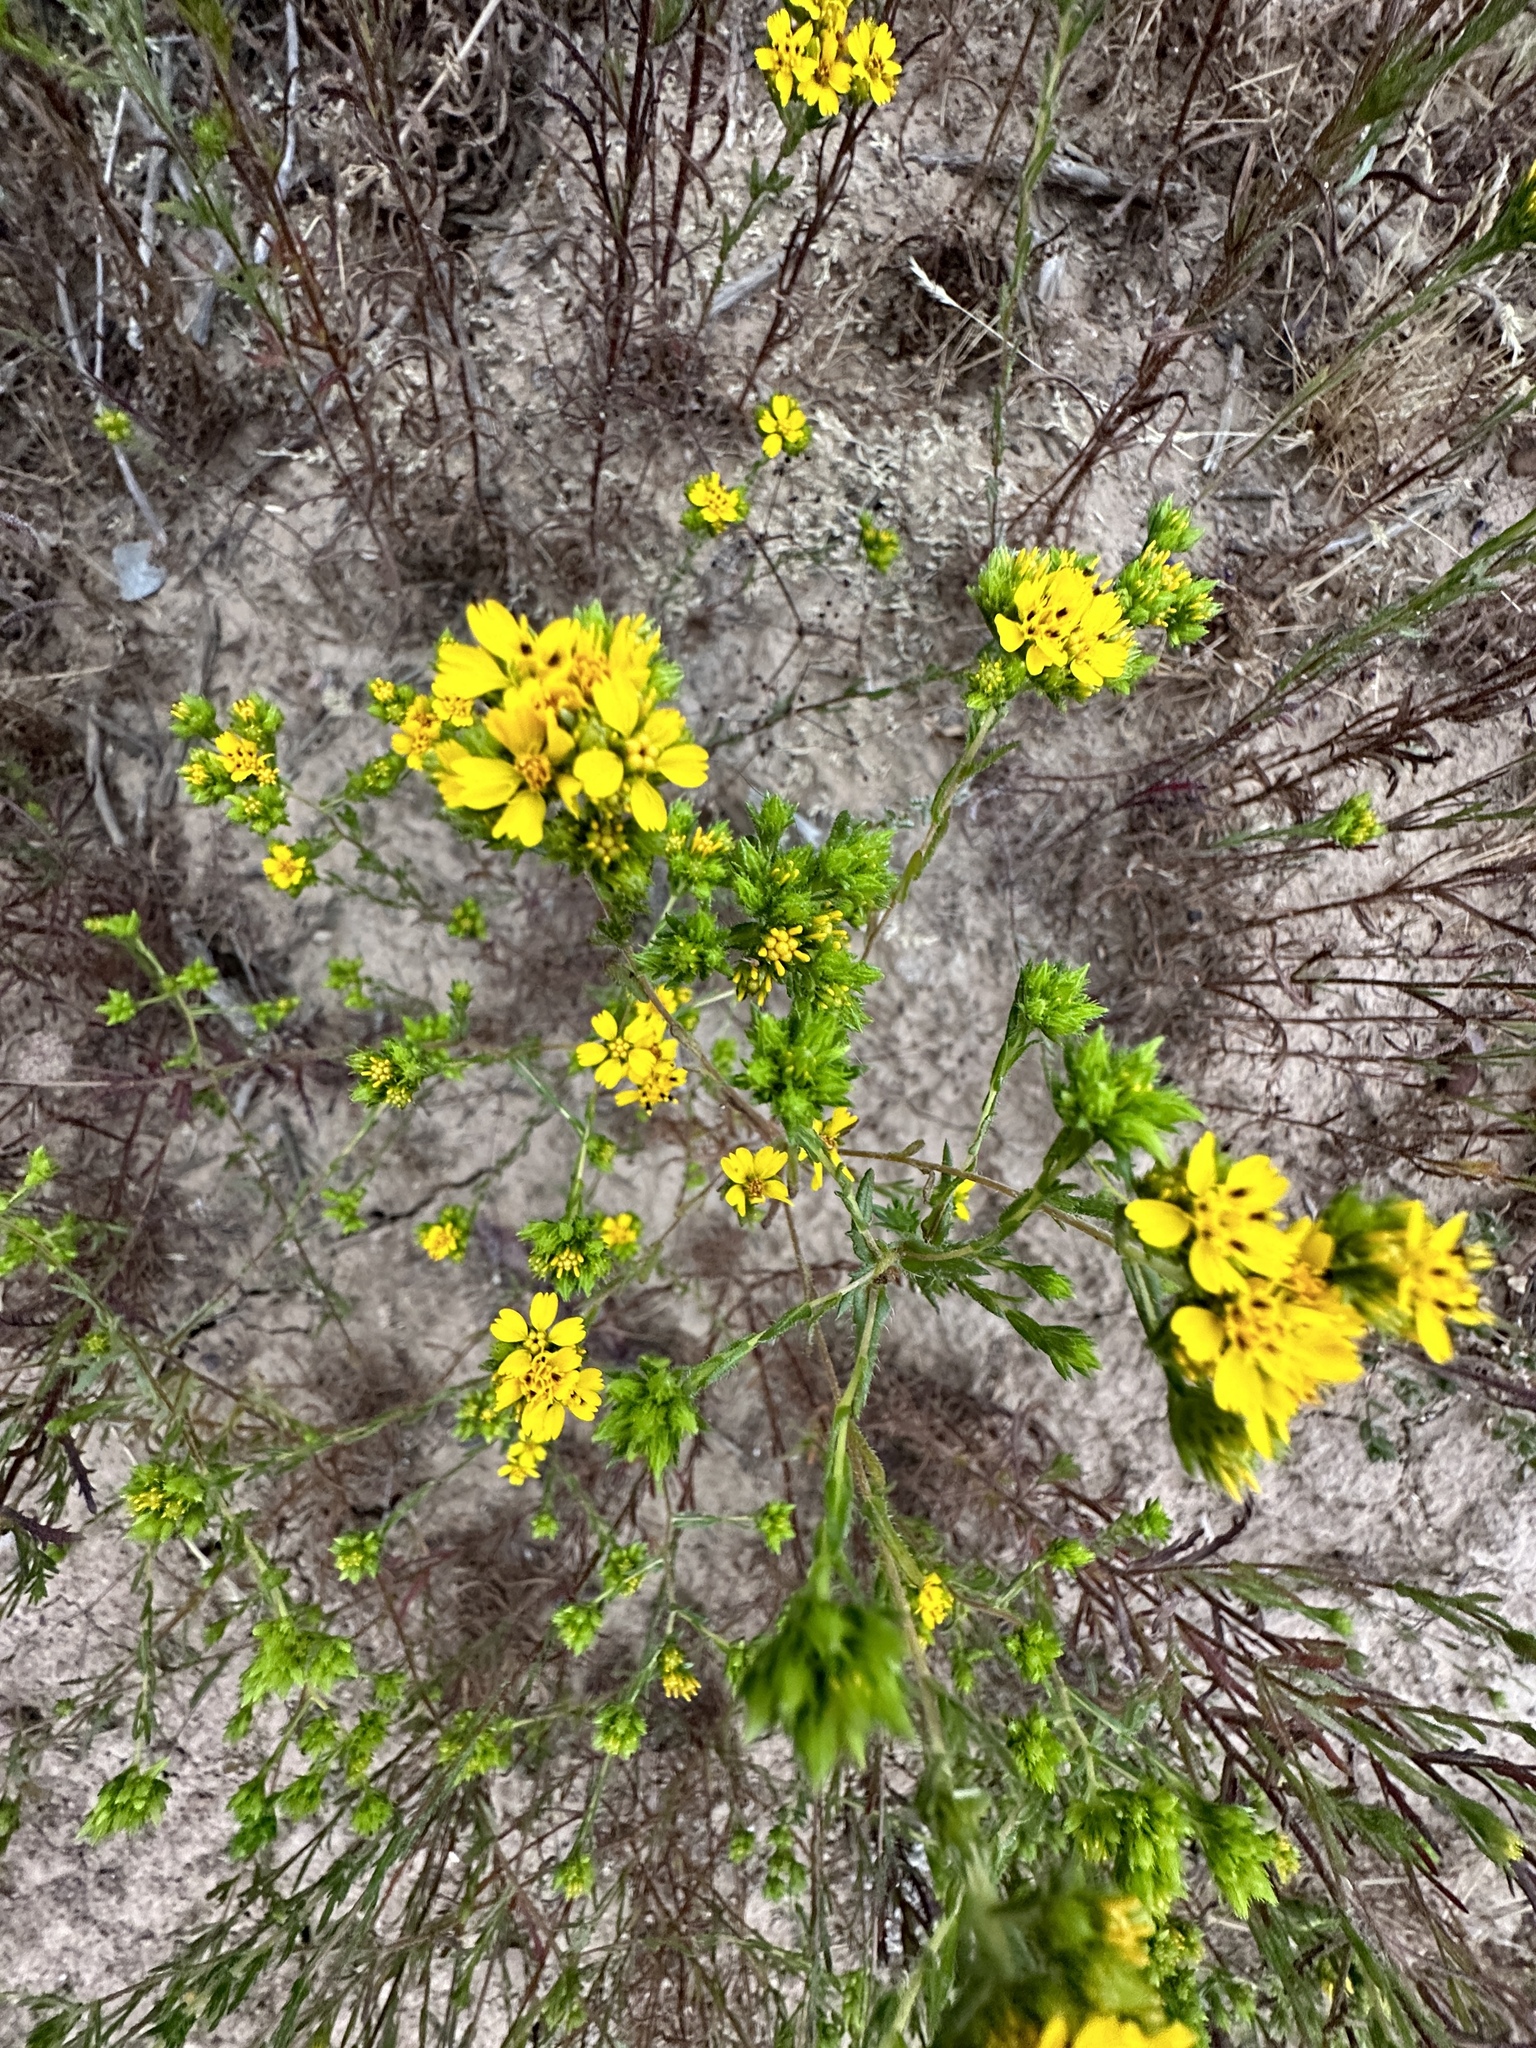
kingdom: Plantae
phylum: Tracheophyta
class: Magnoliopsida
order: Asterales
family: Asteraceae
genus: Deinandra
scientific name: Deinandra fasciculata
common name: Clustered tarweed
